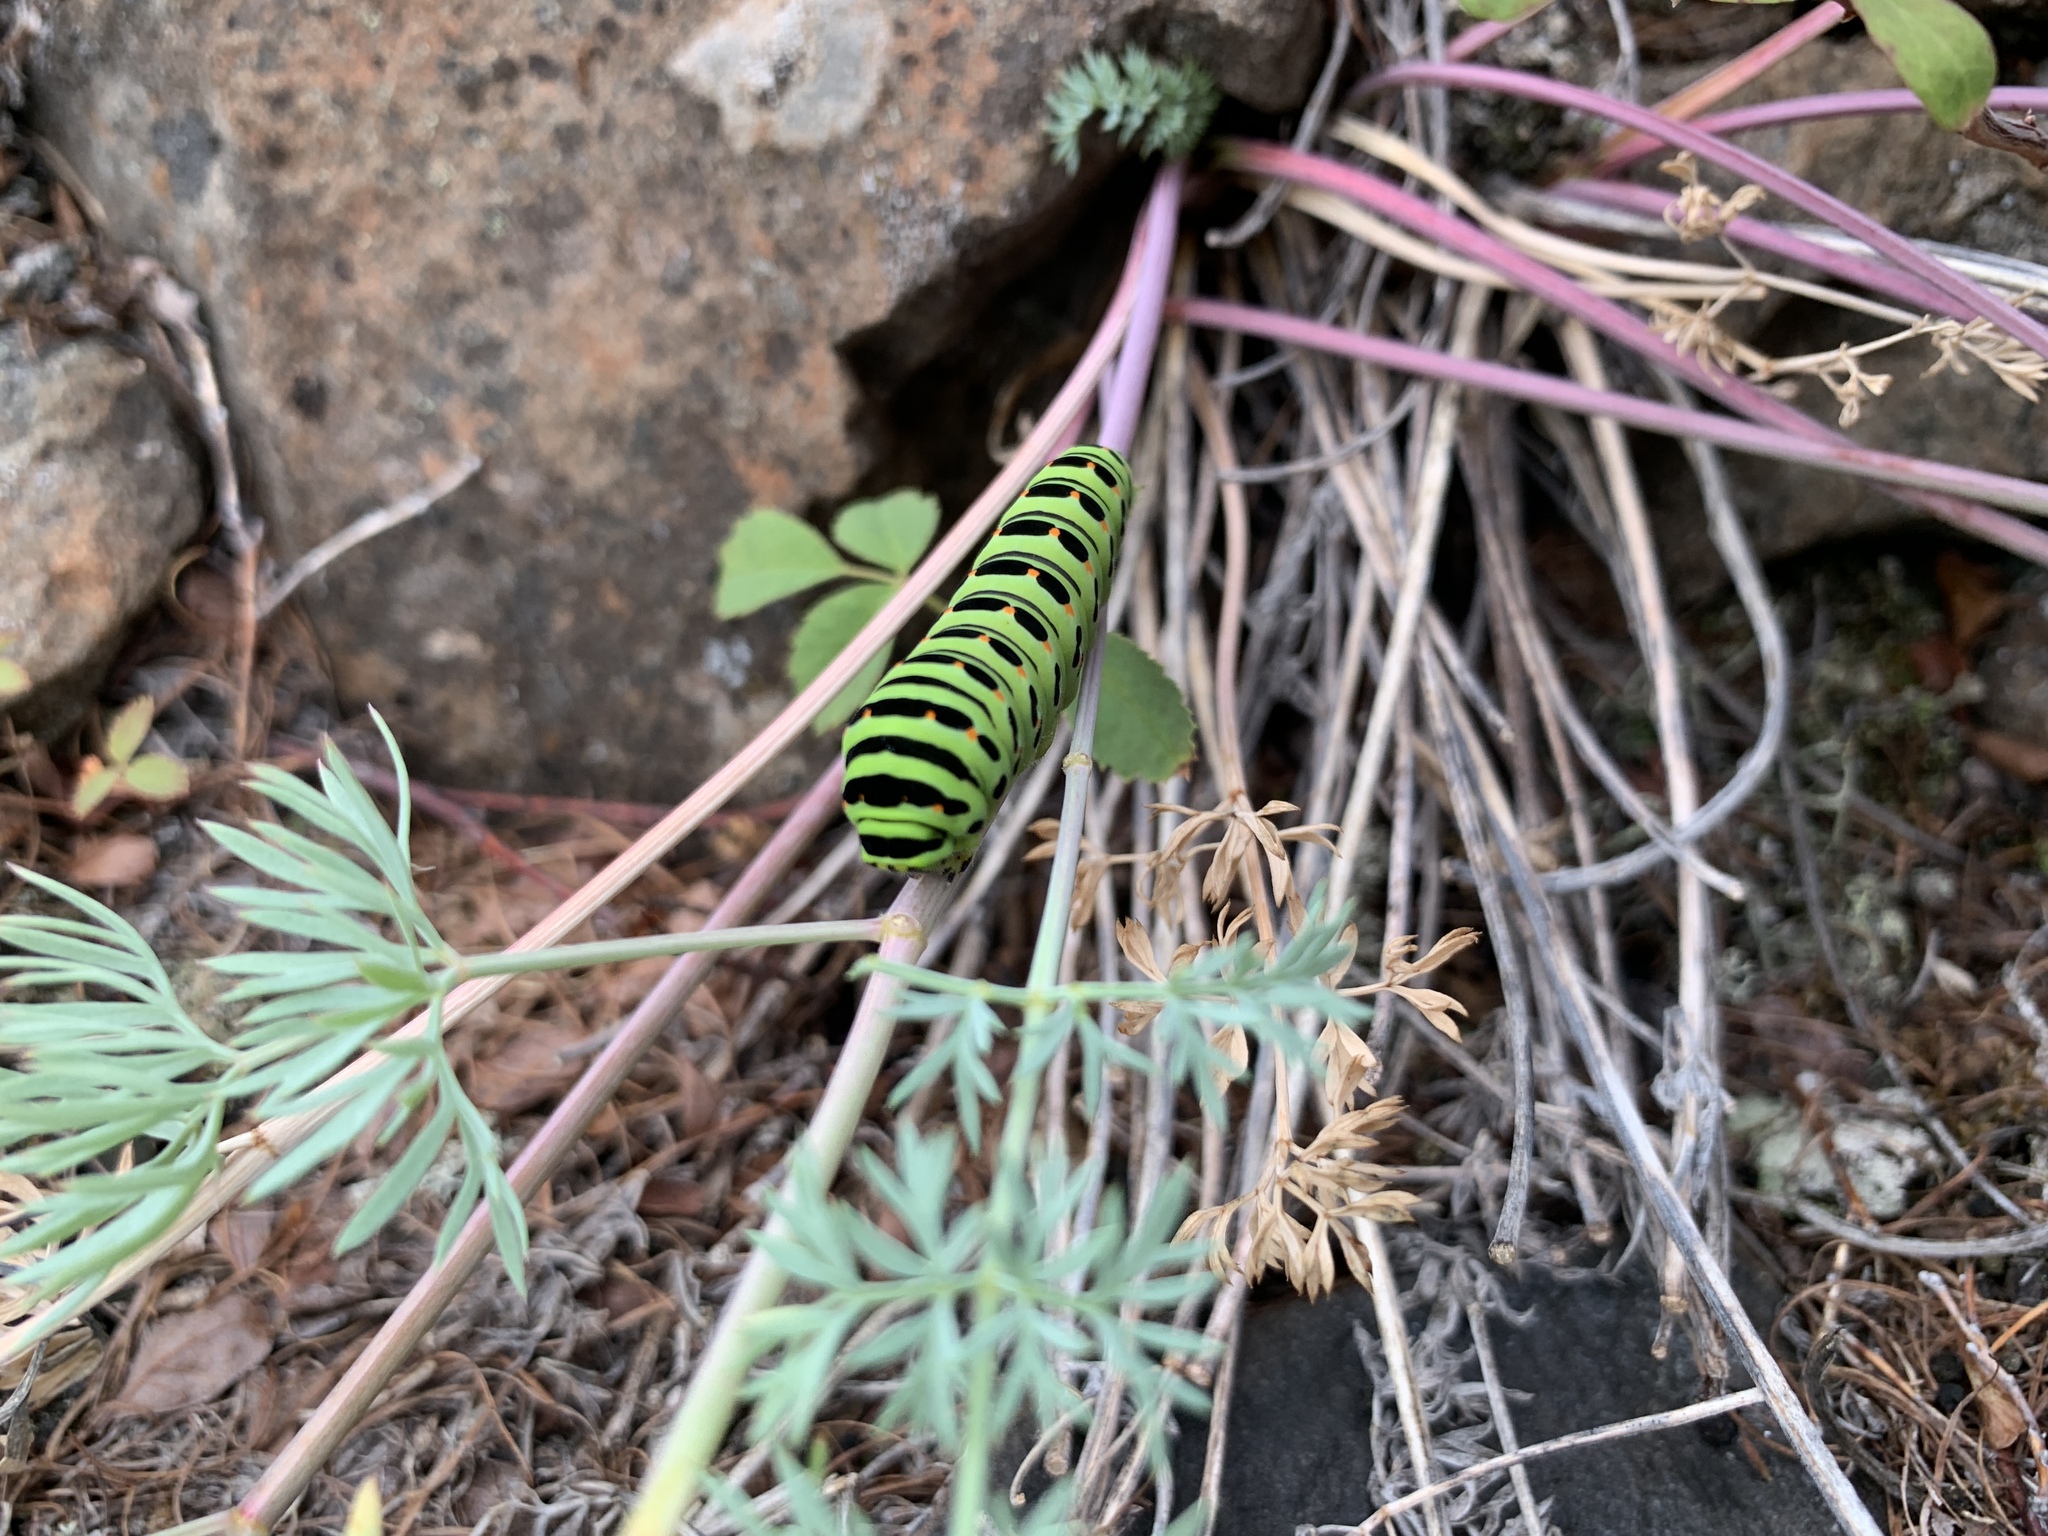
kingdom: Animalia
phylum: Arthropoda
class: Insecta
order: Lepidoptera
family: Papilionidae
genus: Papilio
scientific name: Papilio machaon
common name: Swallowtail
